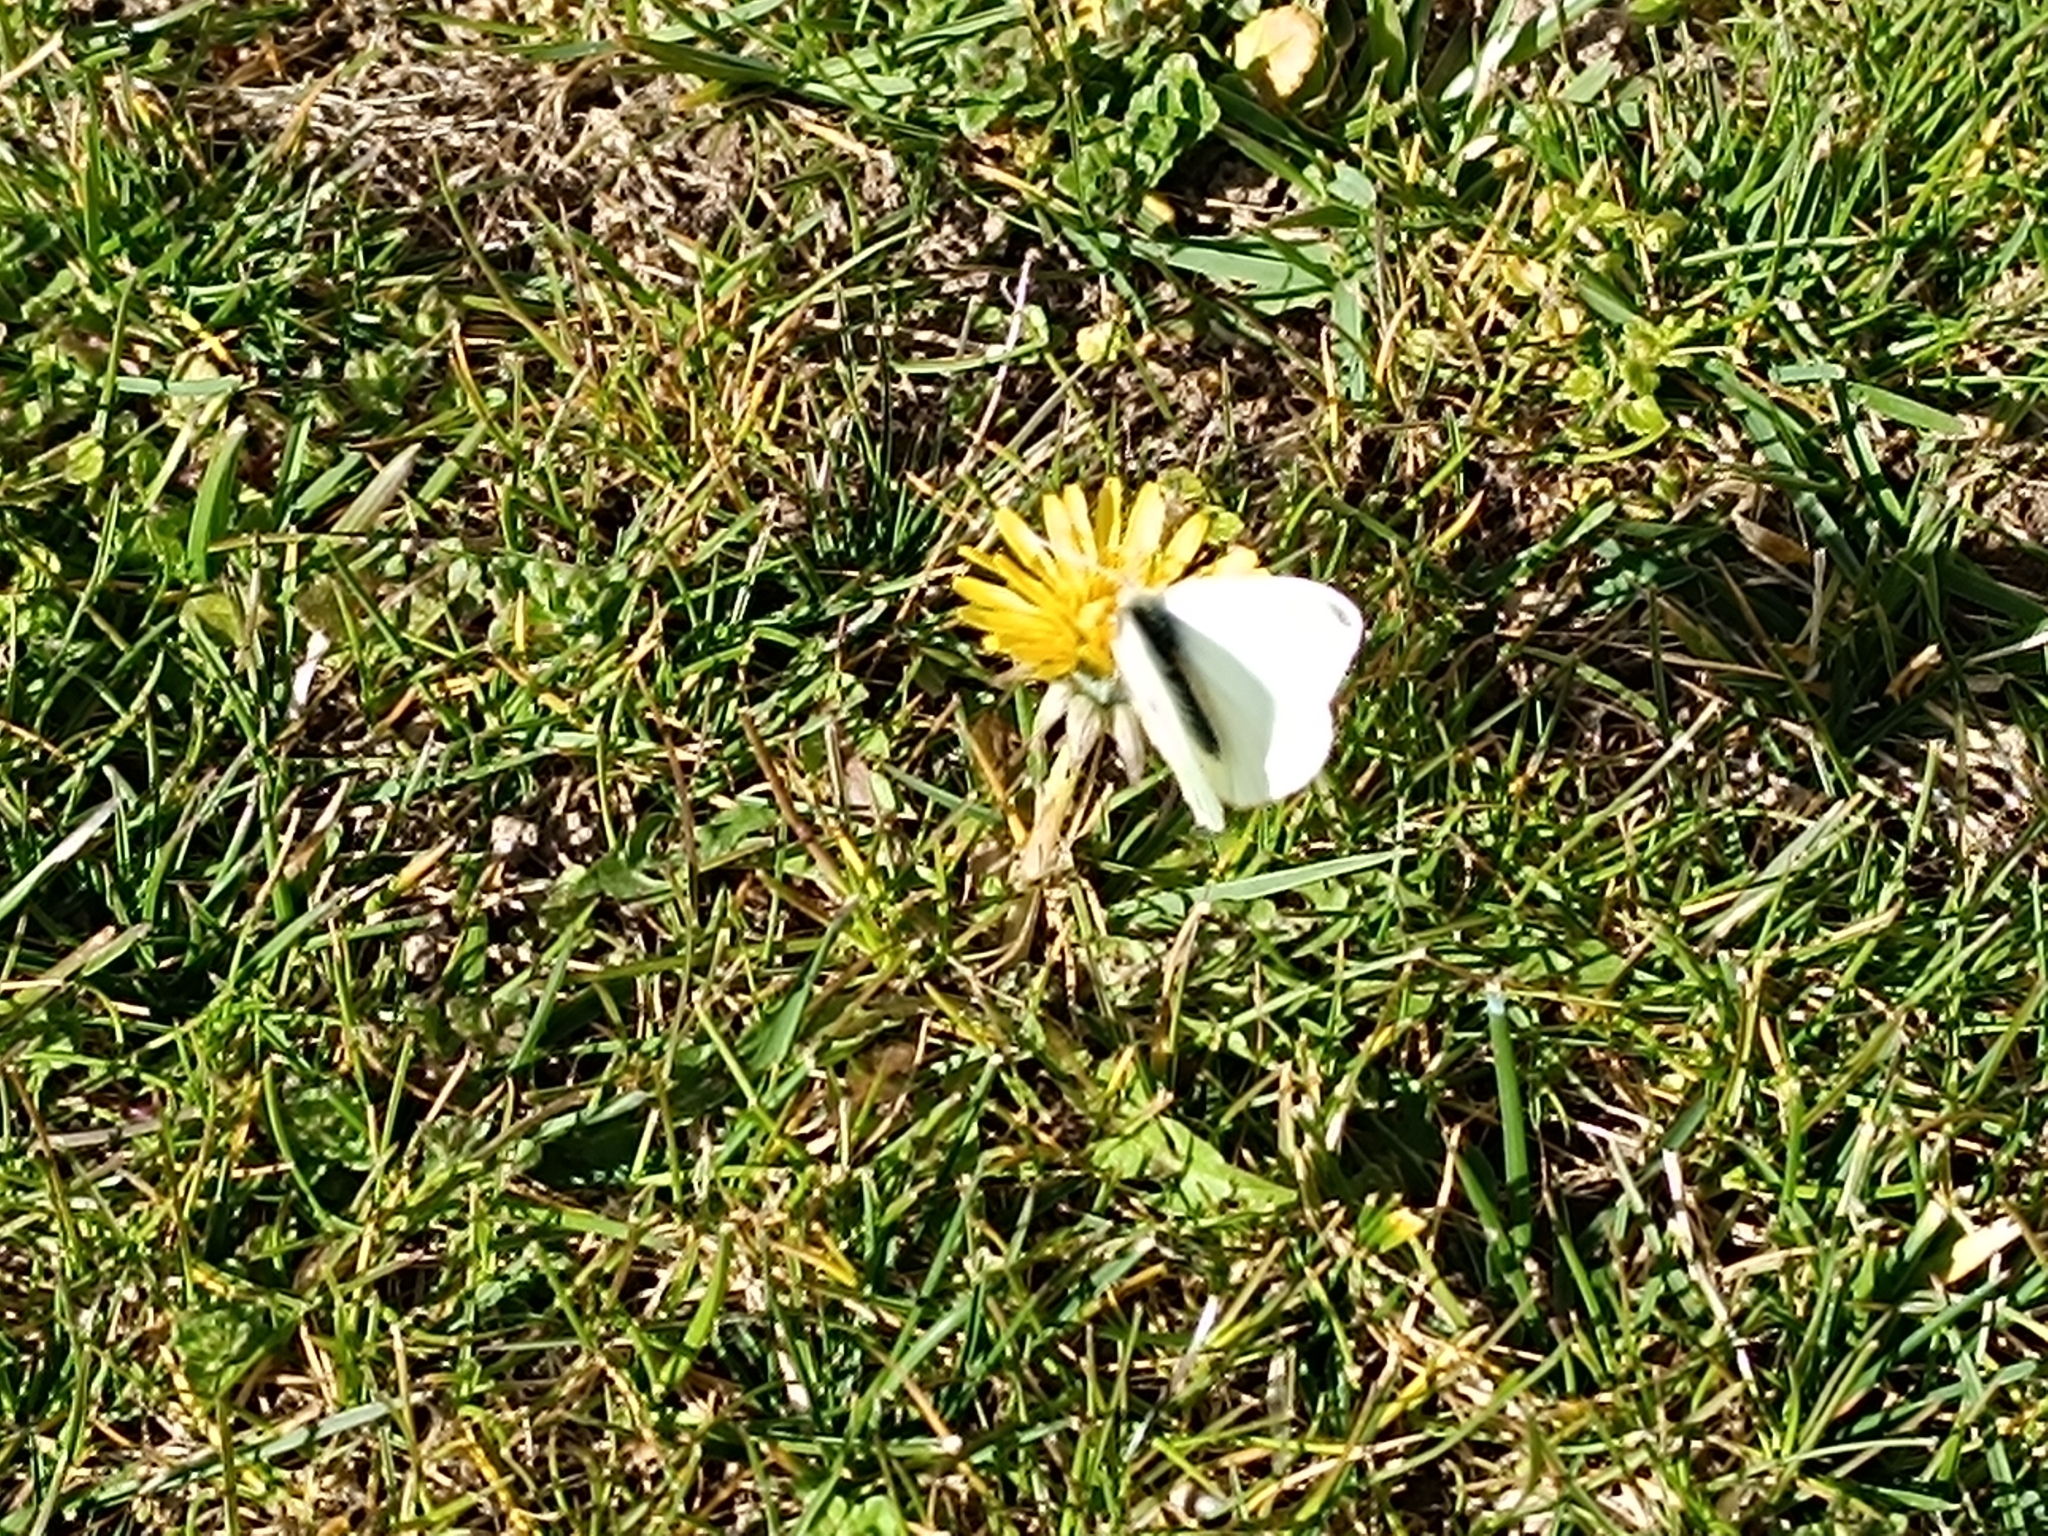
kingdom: Animalia
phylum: Arthropoda
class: Insecta
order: Lepidoptera
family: Pieridae
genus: Pieris
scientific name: Pieris rapae
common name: Small white
